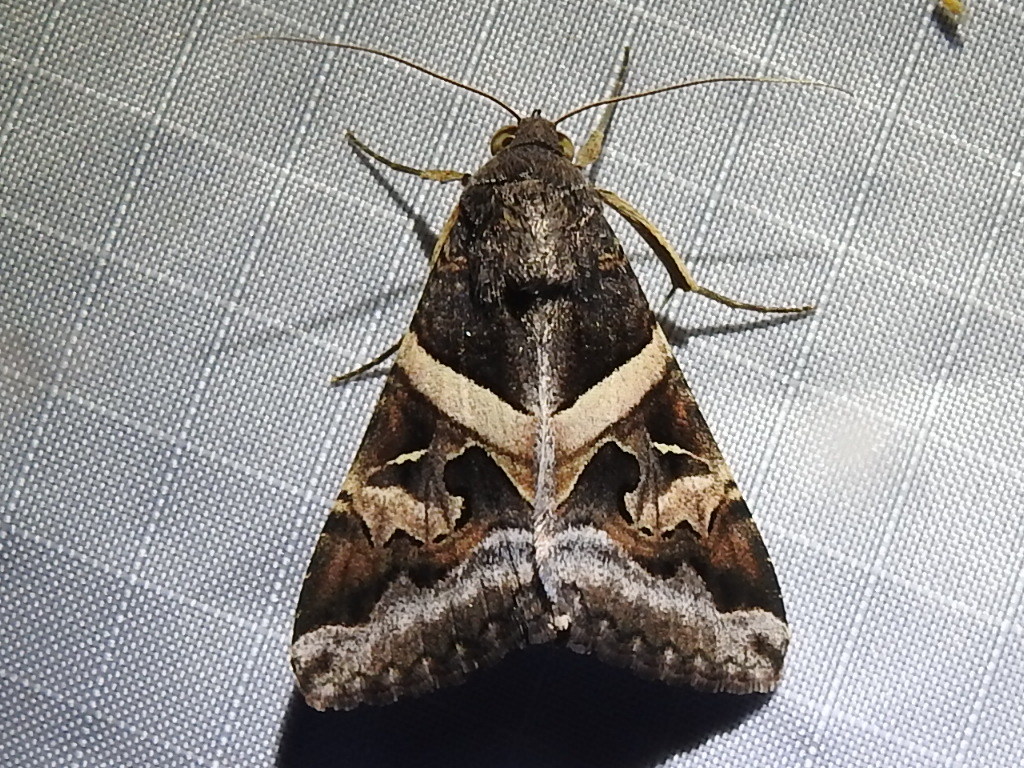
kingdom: Animalia
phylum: Arthropoda
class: Insecta
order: Lepidoptera
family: Erebidae
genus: Melipotis
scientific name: Melipotis indomita
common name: Moth
